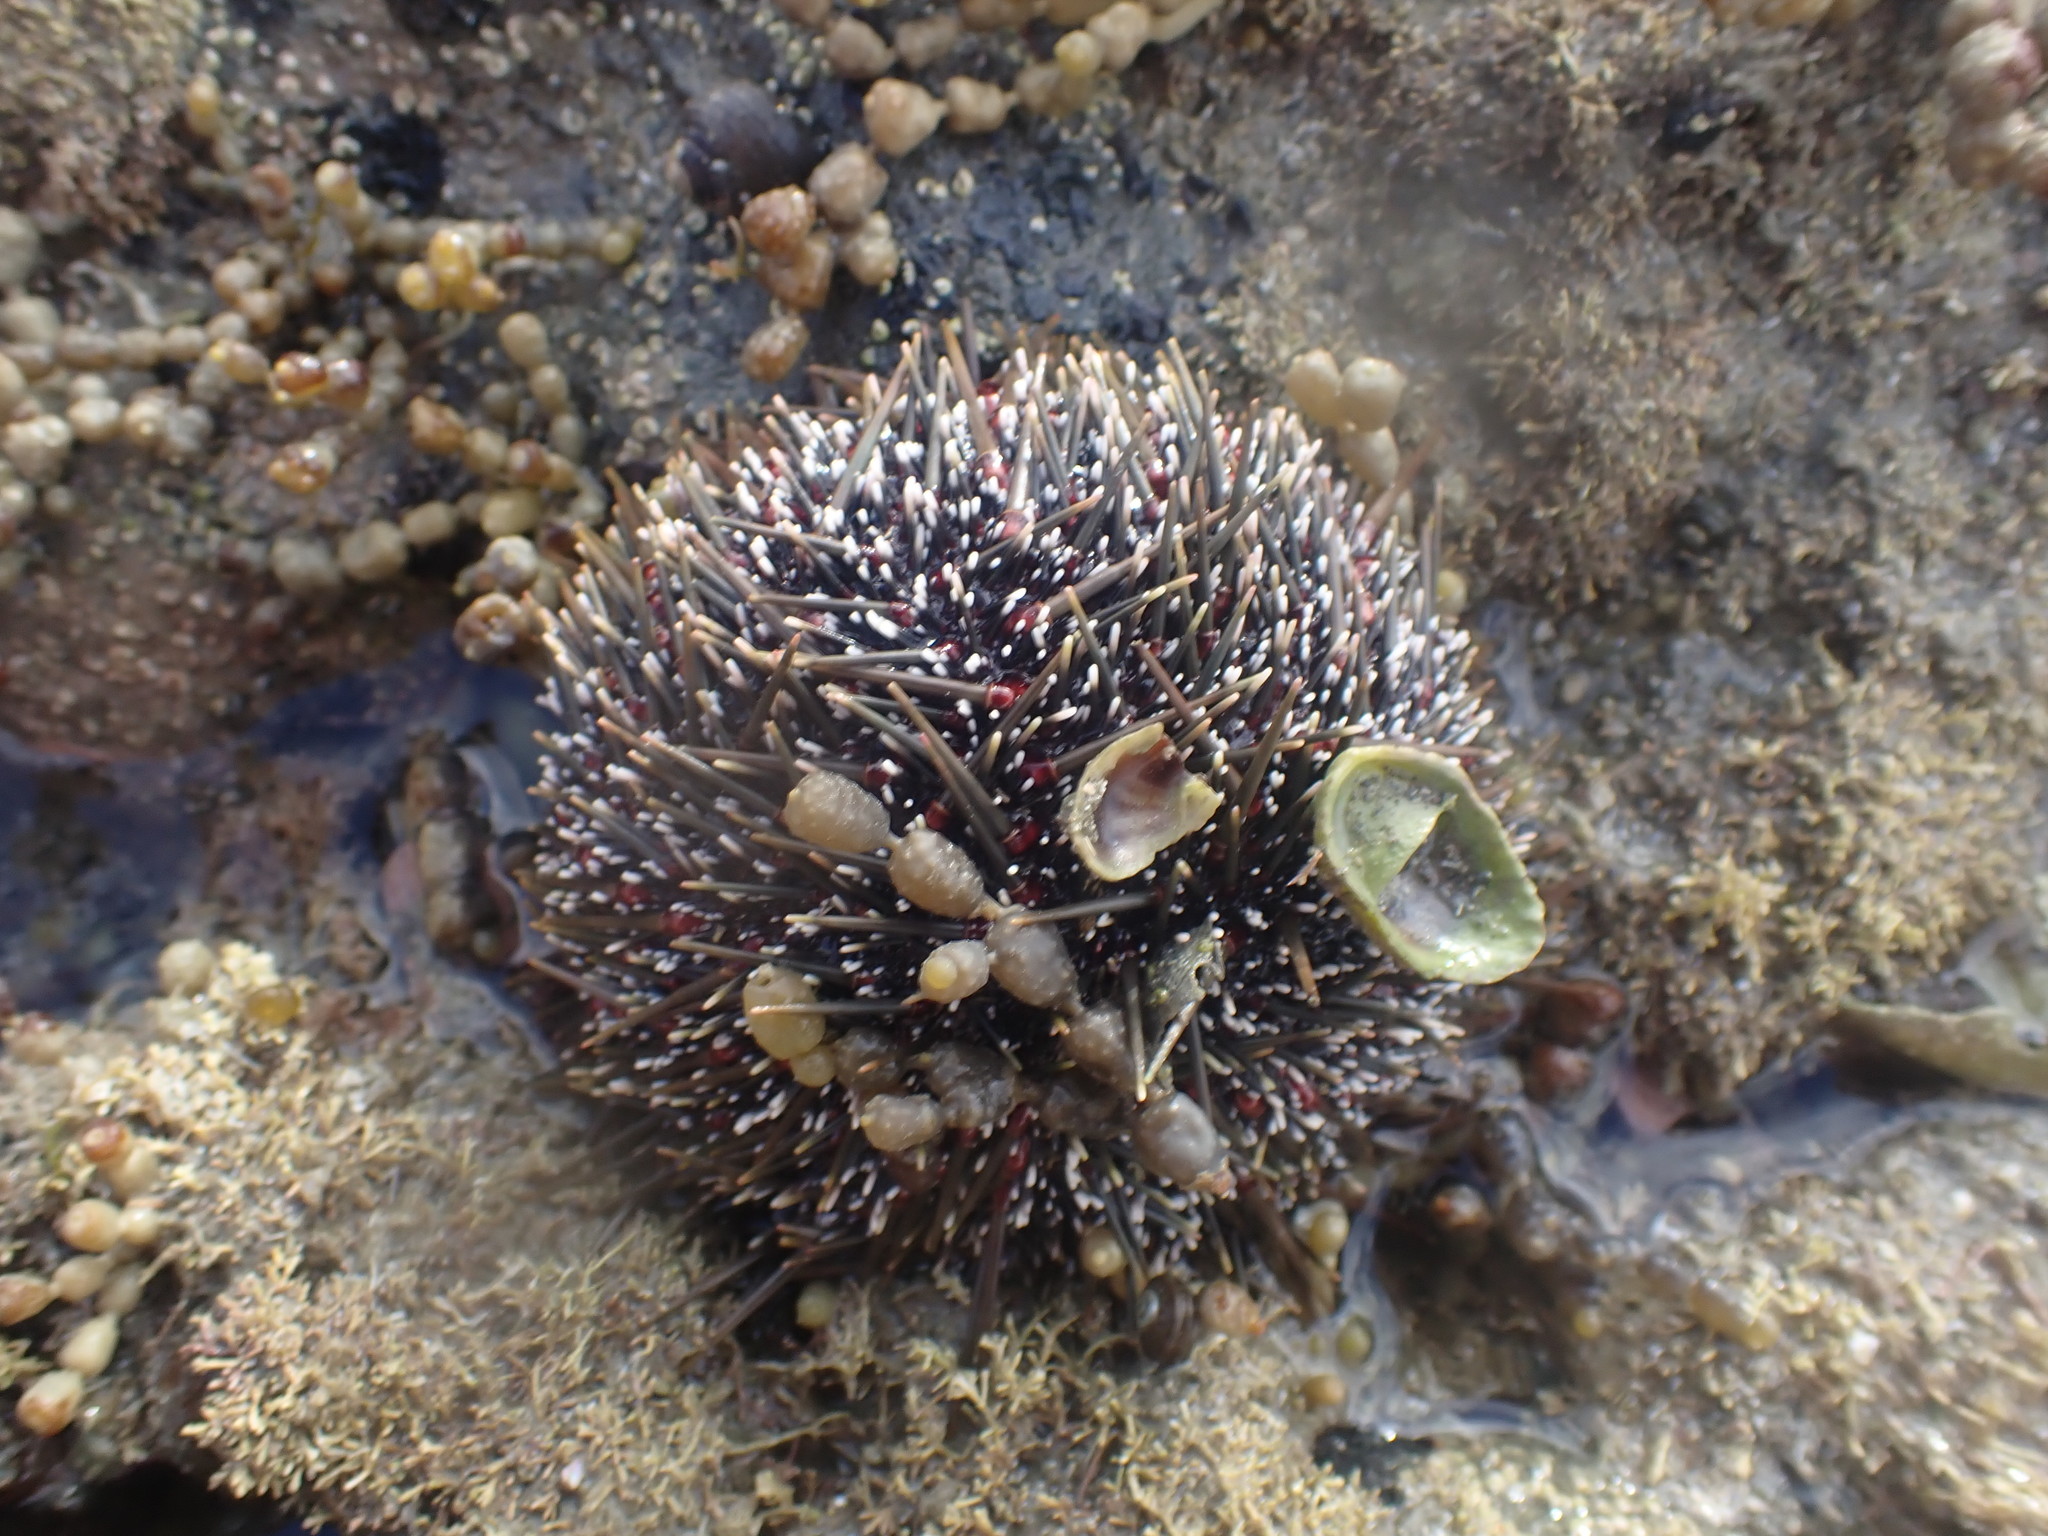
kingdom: Animalia
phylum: Echinodermata
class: Echinoidea
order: Camarodonta
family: Echinometridae
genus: Evechinus
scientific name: Evechinus chloroticus
